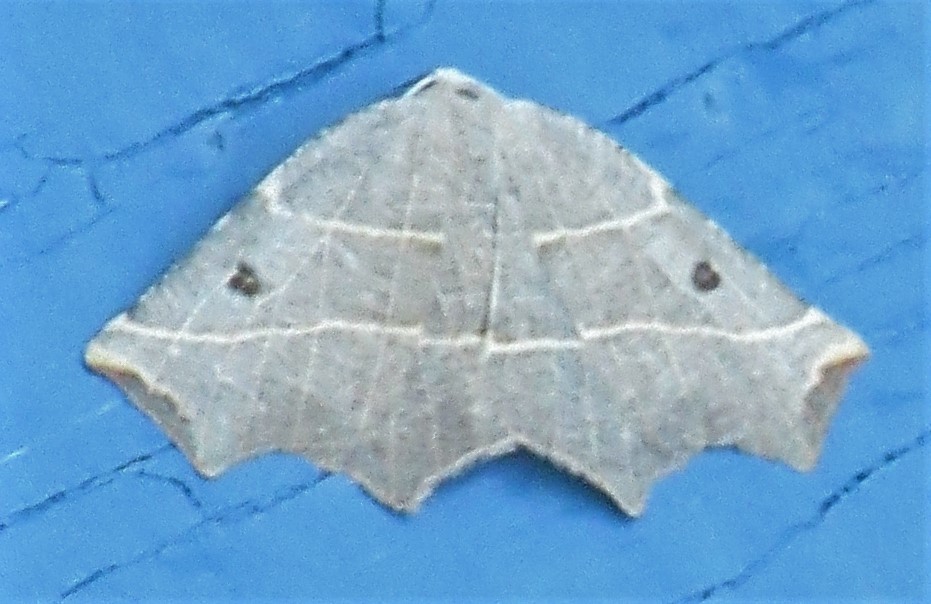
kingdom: Animalia
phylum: Arthropoda
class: Insecta
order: Lepidoptera
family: Geometridae
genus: Metanema
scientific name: Metanema inatomaria
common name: Pale metanema
